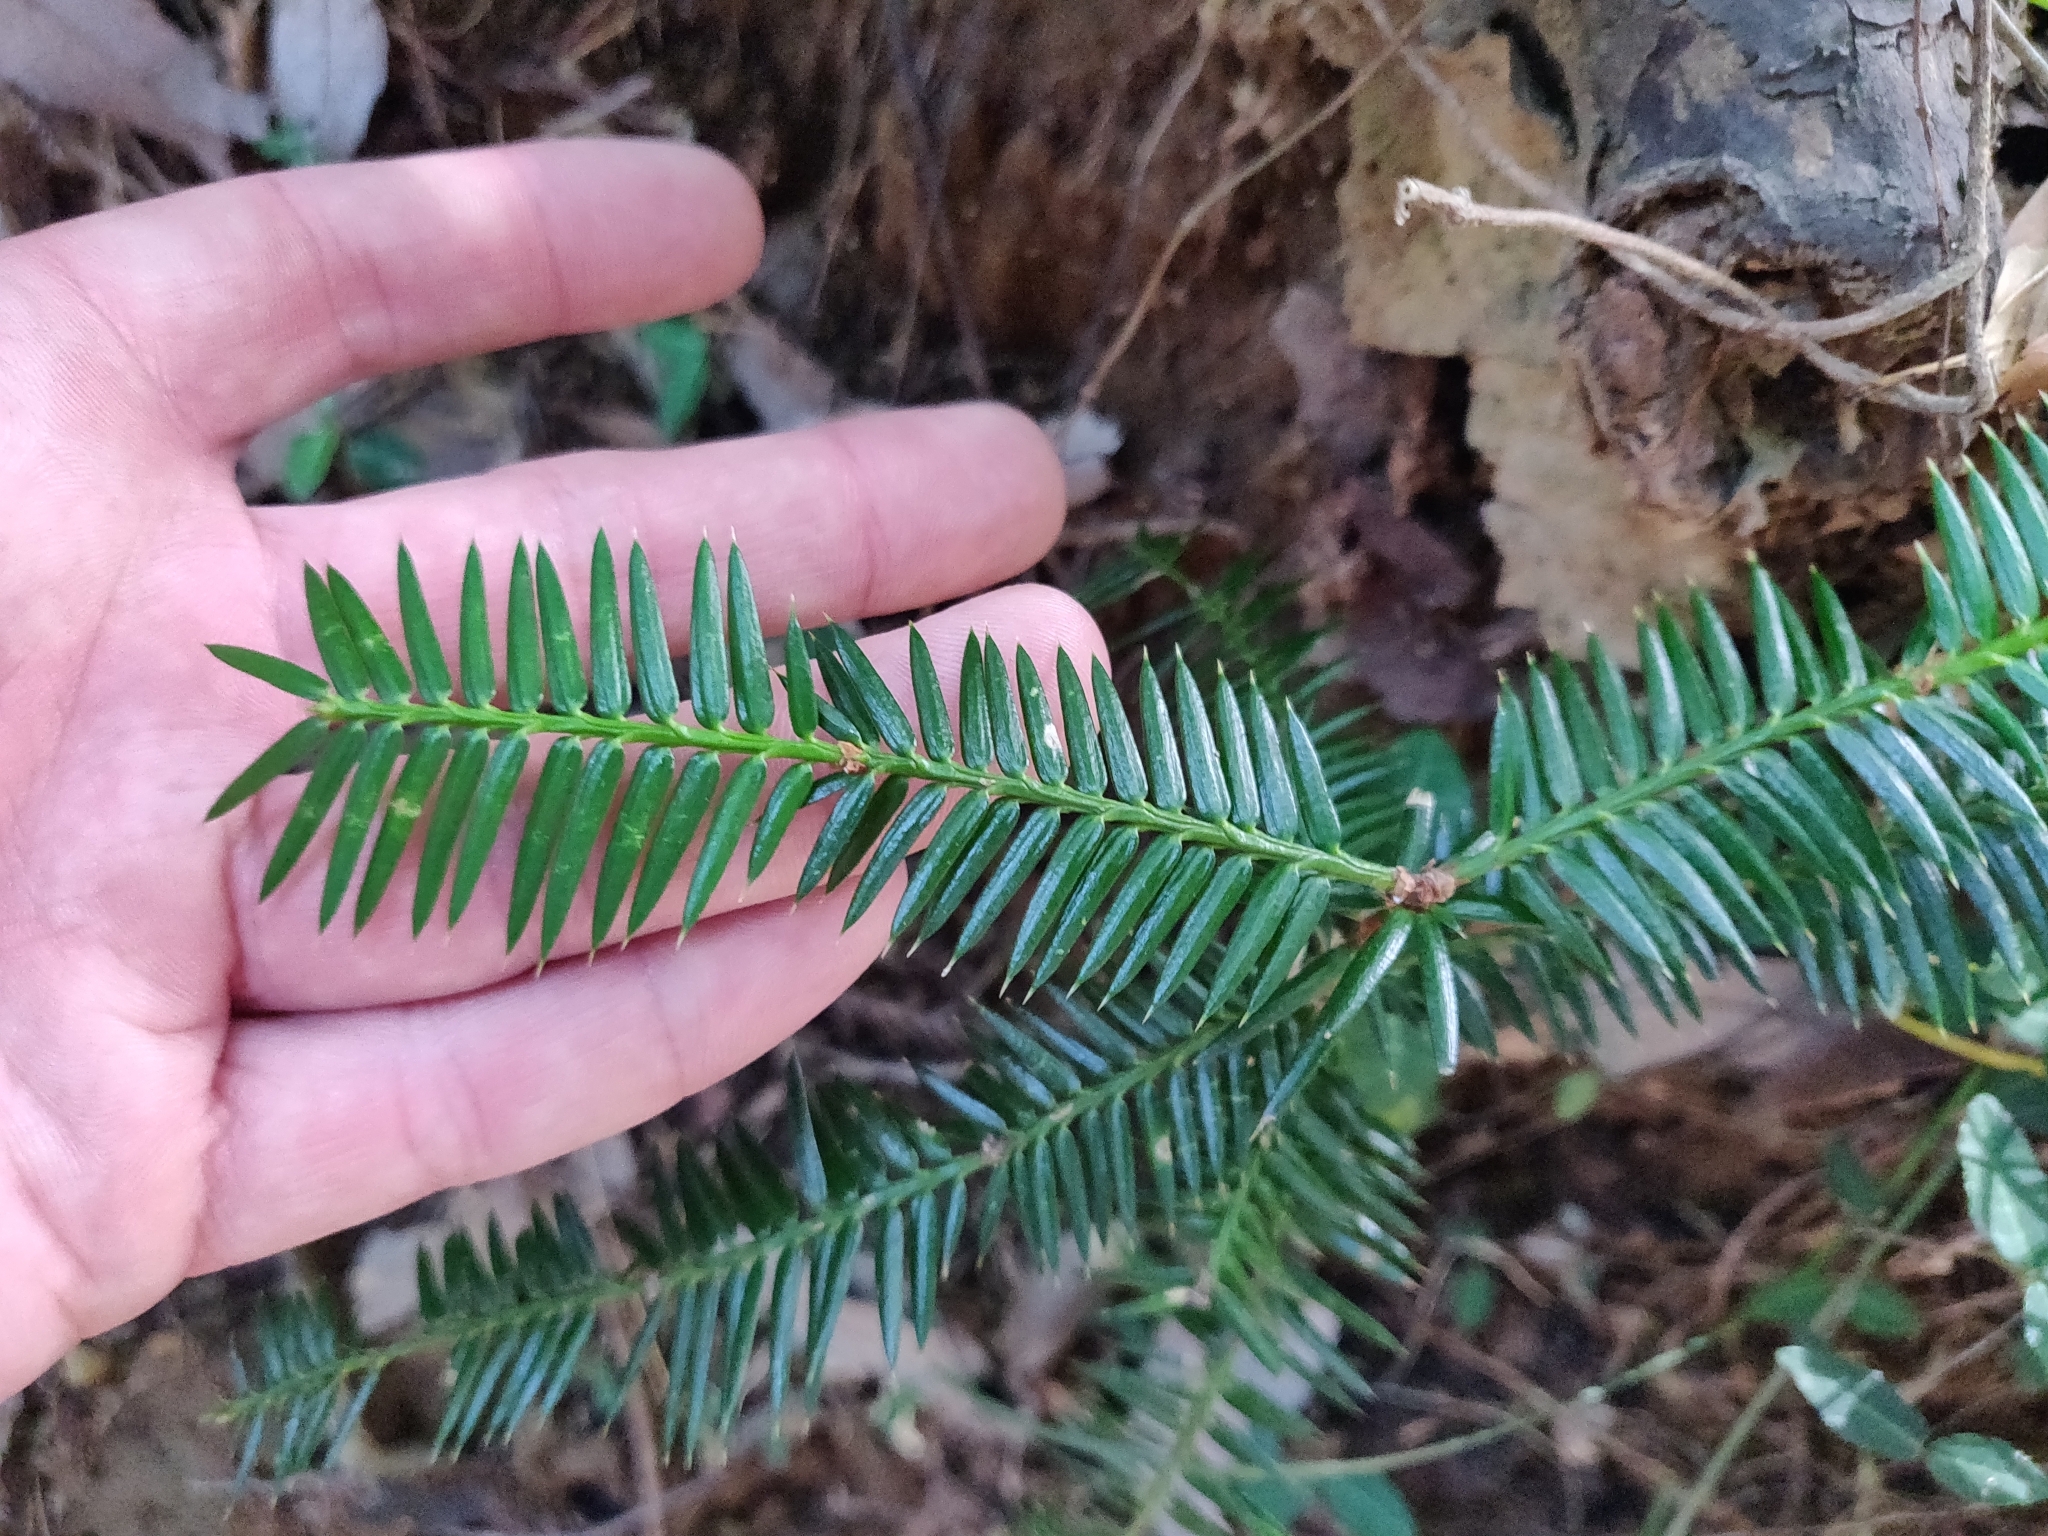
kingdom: Plantae
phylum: Tracheophyta
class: Pinopsida
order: Pinales
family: Taxaceae
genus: Torreya
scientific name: Torreya nucifera
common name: Japanese nutmeg tree
